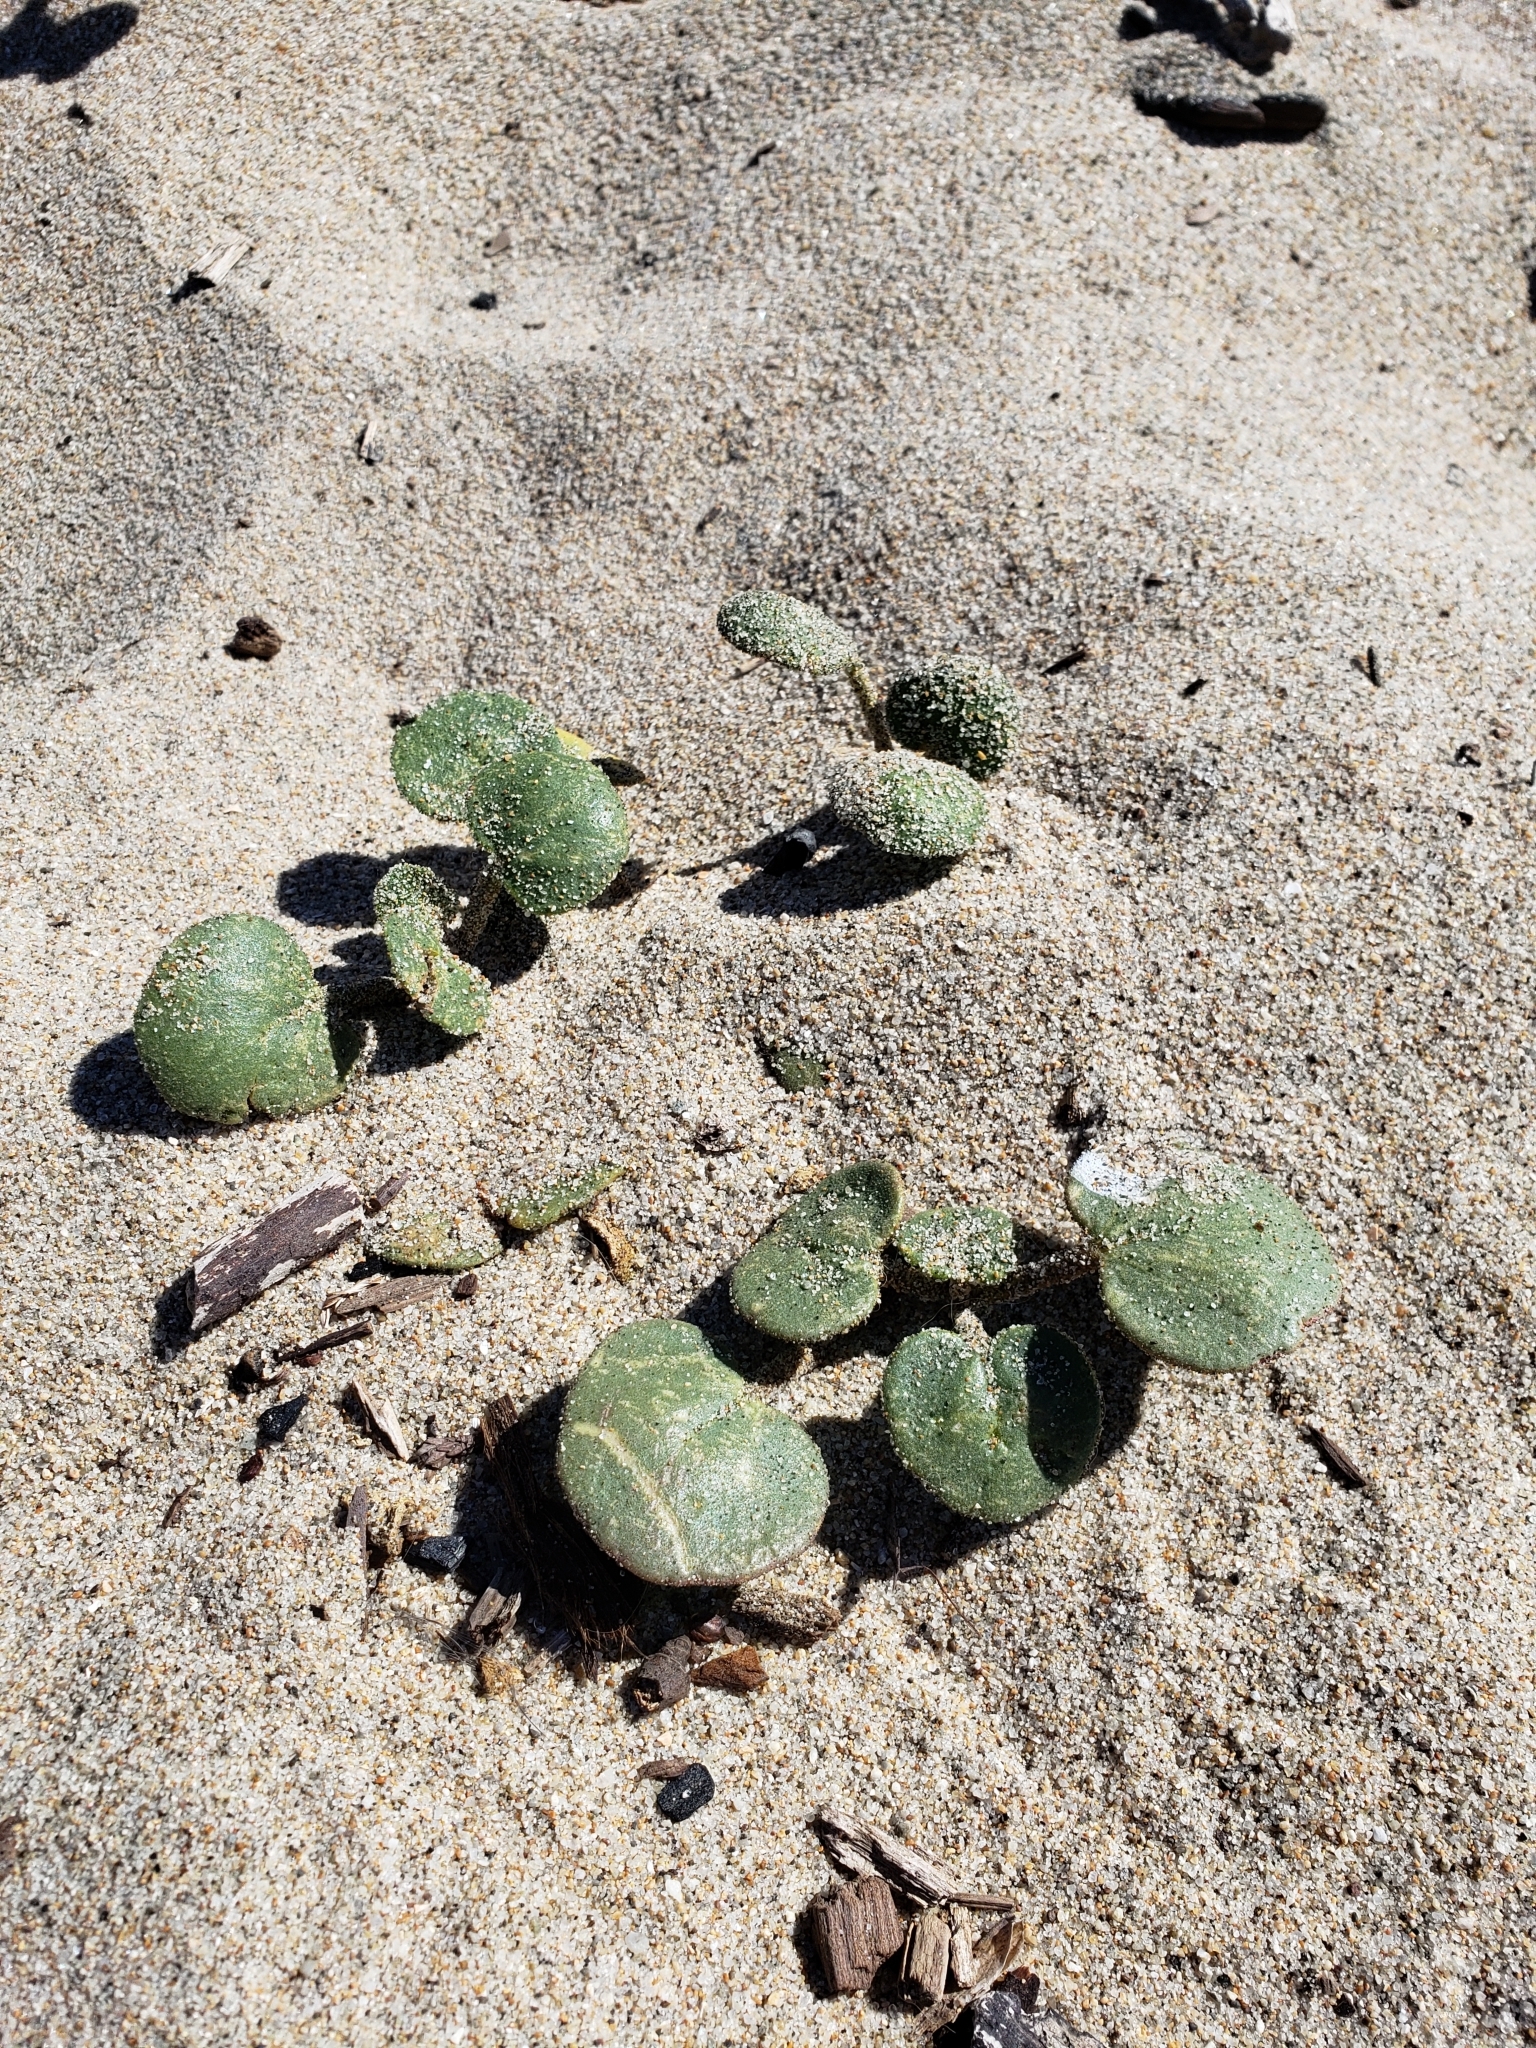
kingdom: Plantae
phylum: Tracheophyta
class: Magnoliopsida
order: Caryophyllales
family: Nyctaginaceae
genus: Abronia
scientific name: Abronia latifolia
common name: Yellow sand-verbena
